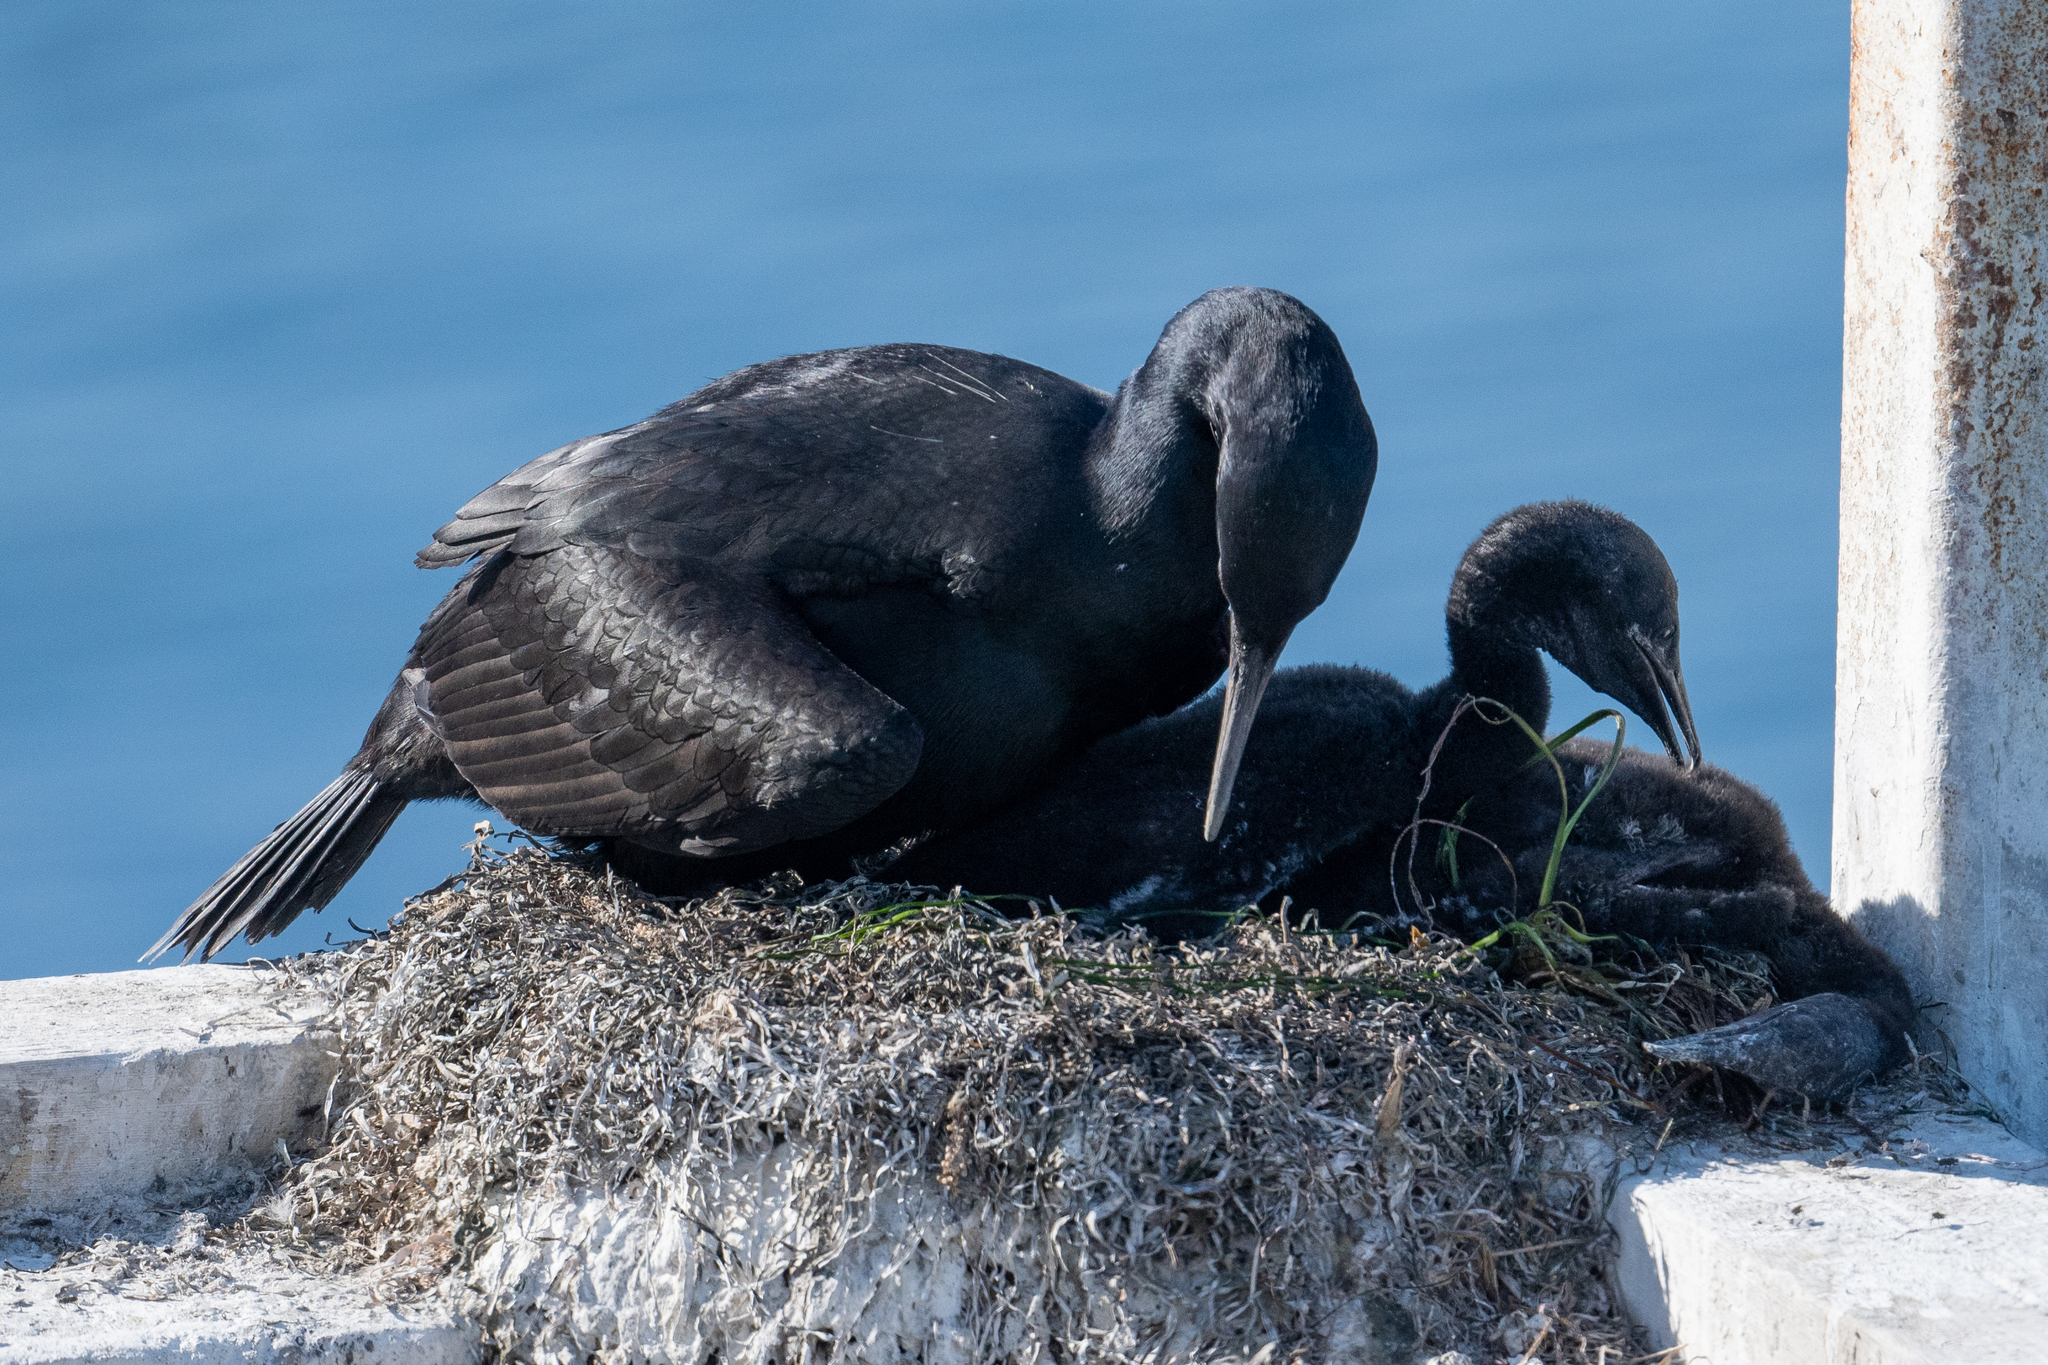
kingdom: Animalia
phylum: Chordata
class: Aves
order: Suliformes
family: Phalacrocoracidae
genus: Urile
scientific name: Urile penicillatus
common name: Brandt's cormorant
